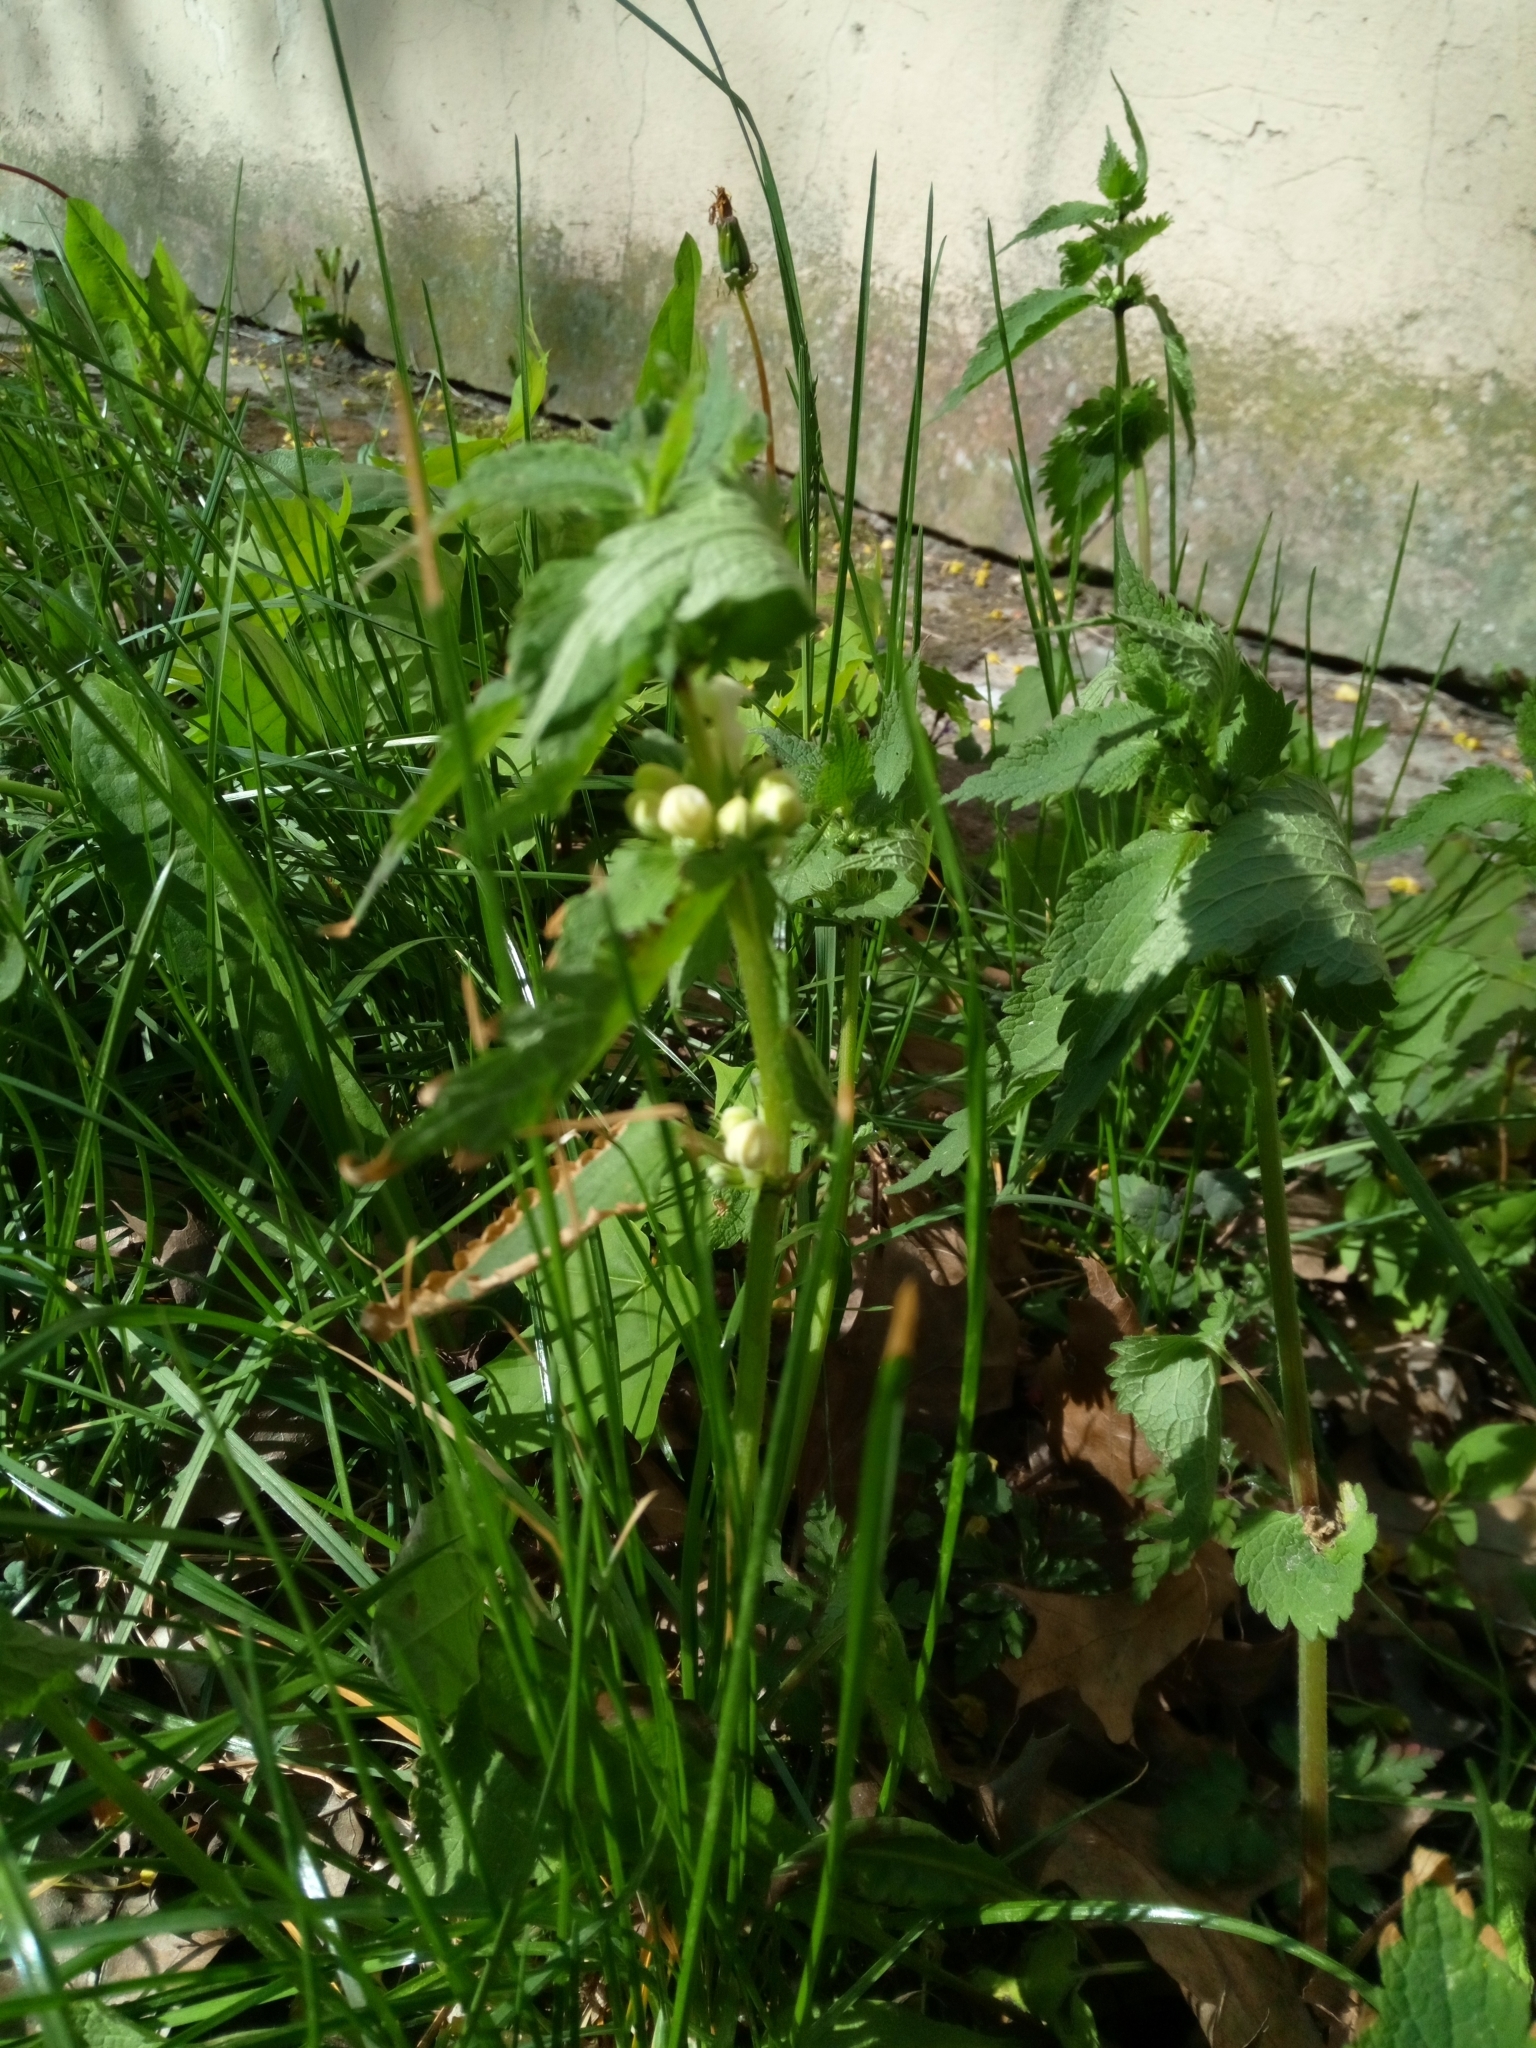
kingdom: Plantae
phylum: Tracheophyta
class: Magnoliopsida
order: Lamiales
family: Lamiaceae
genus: Lamium
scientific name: Lamium album
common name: White dead-nettle
